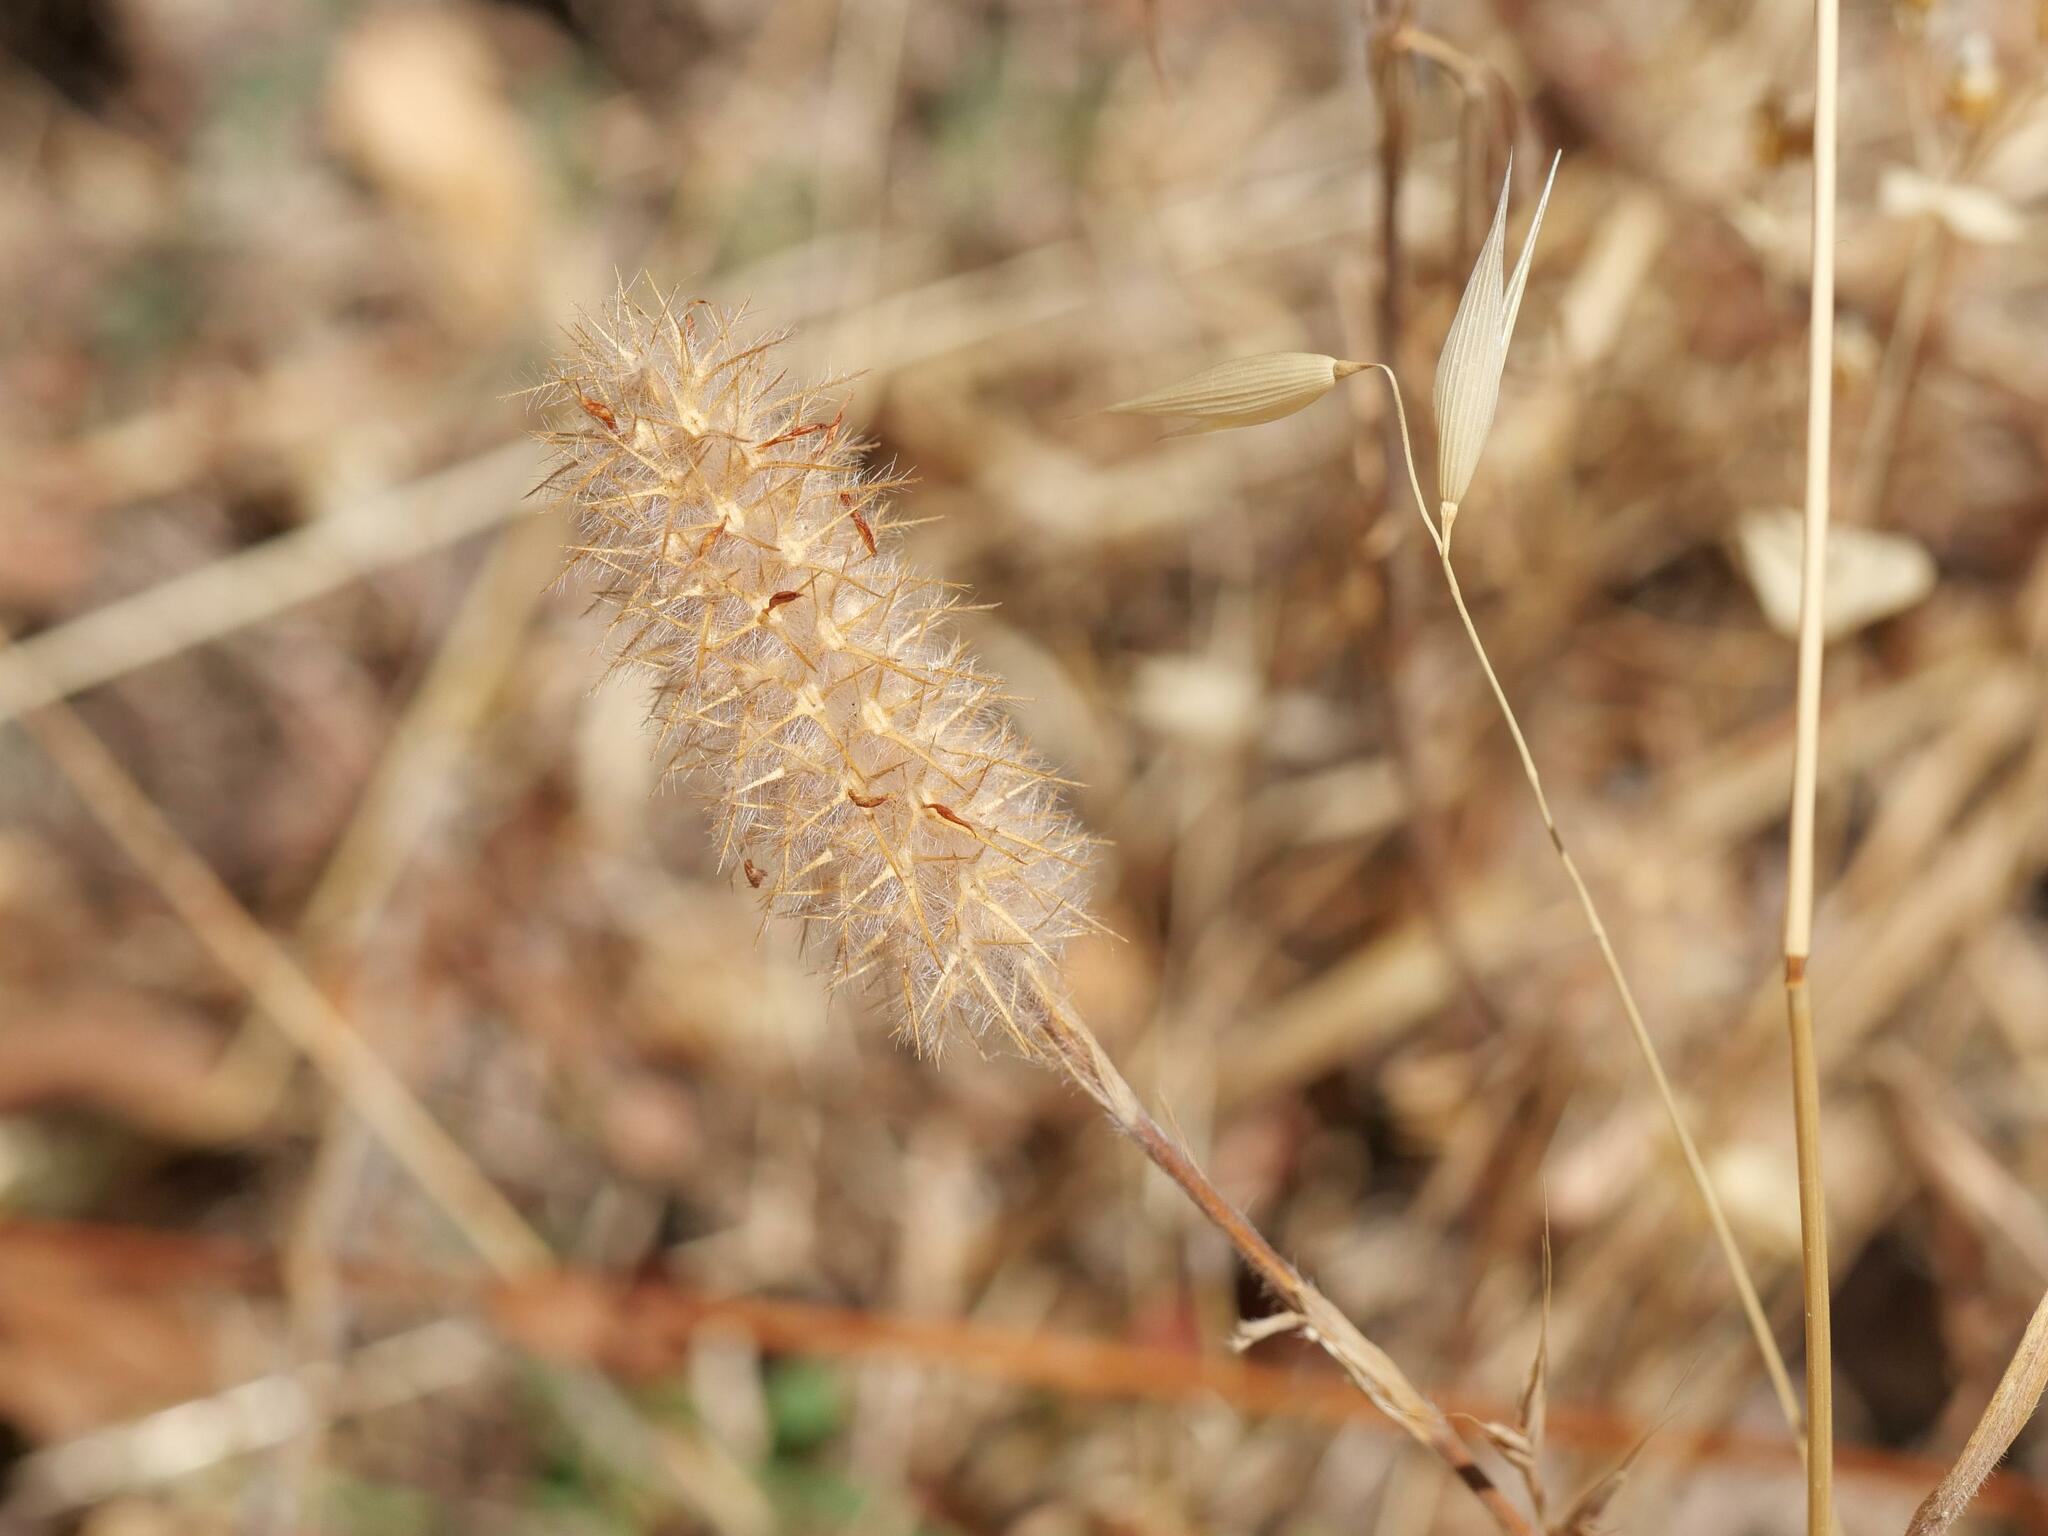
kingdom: Plantae
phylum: Tracheophyta
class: Magnoliopsida
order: Fabales
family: Fabaceae
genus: Trifolium
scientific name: Trifolium angustifolium
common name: Narrow clover
